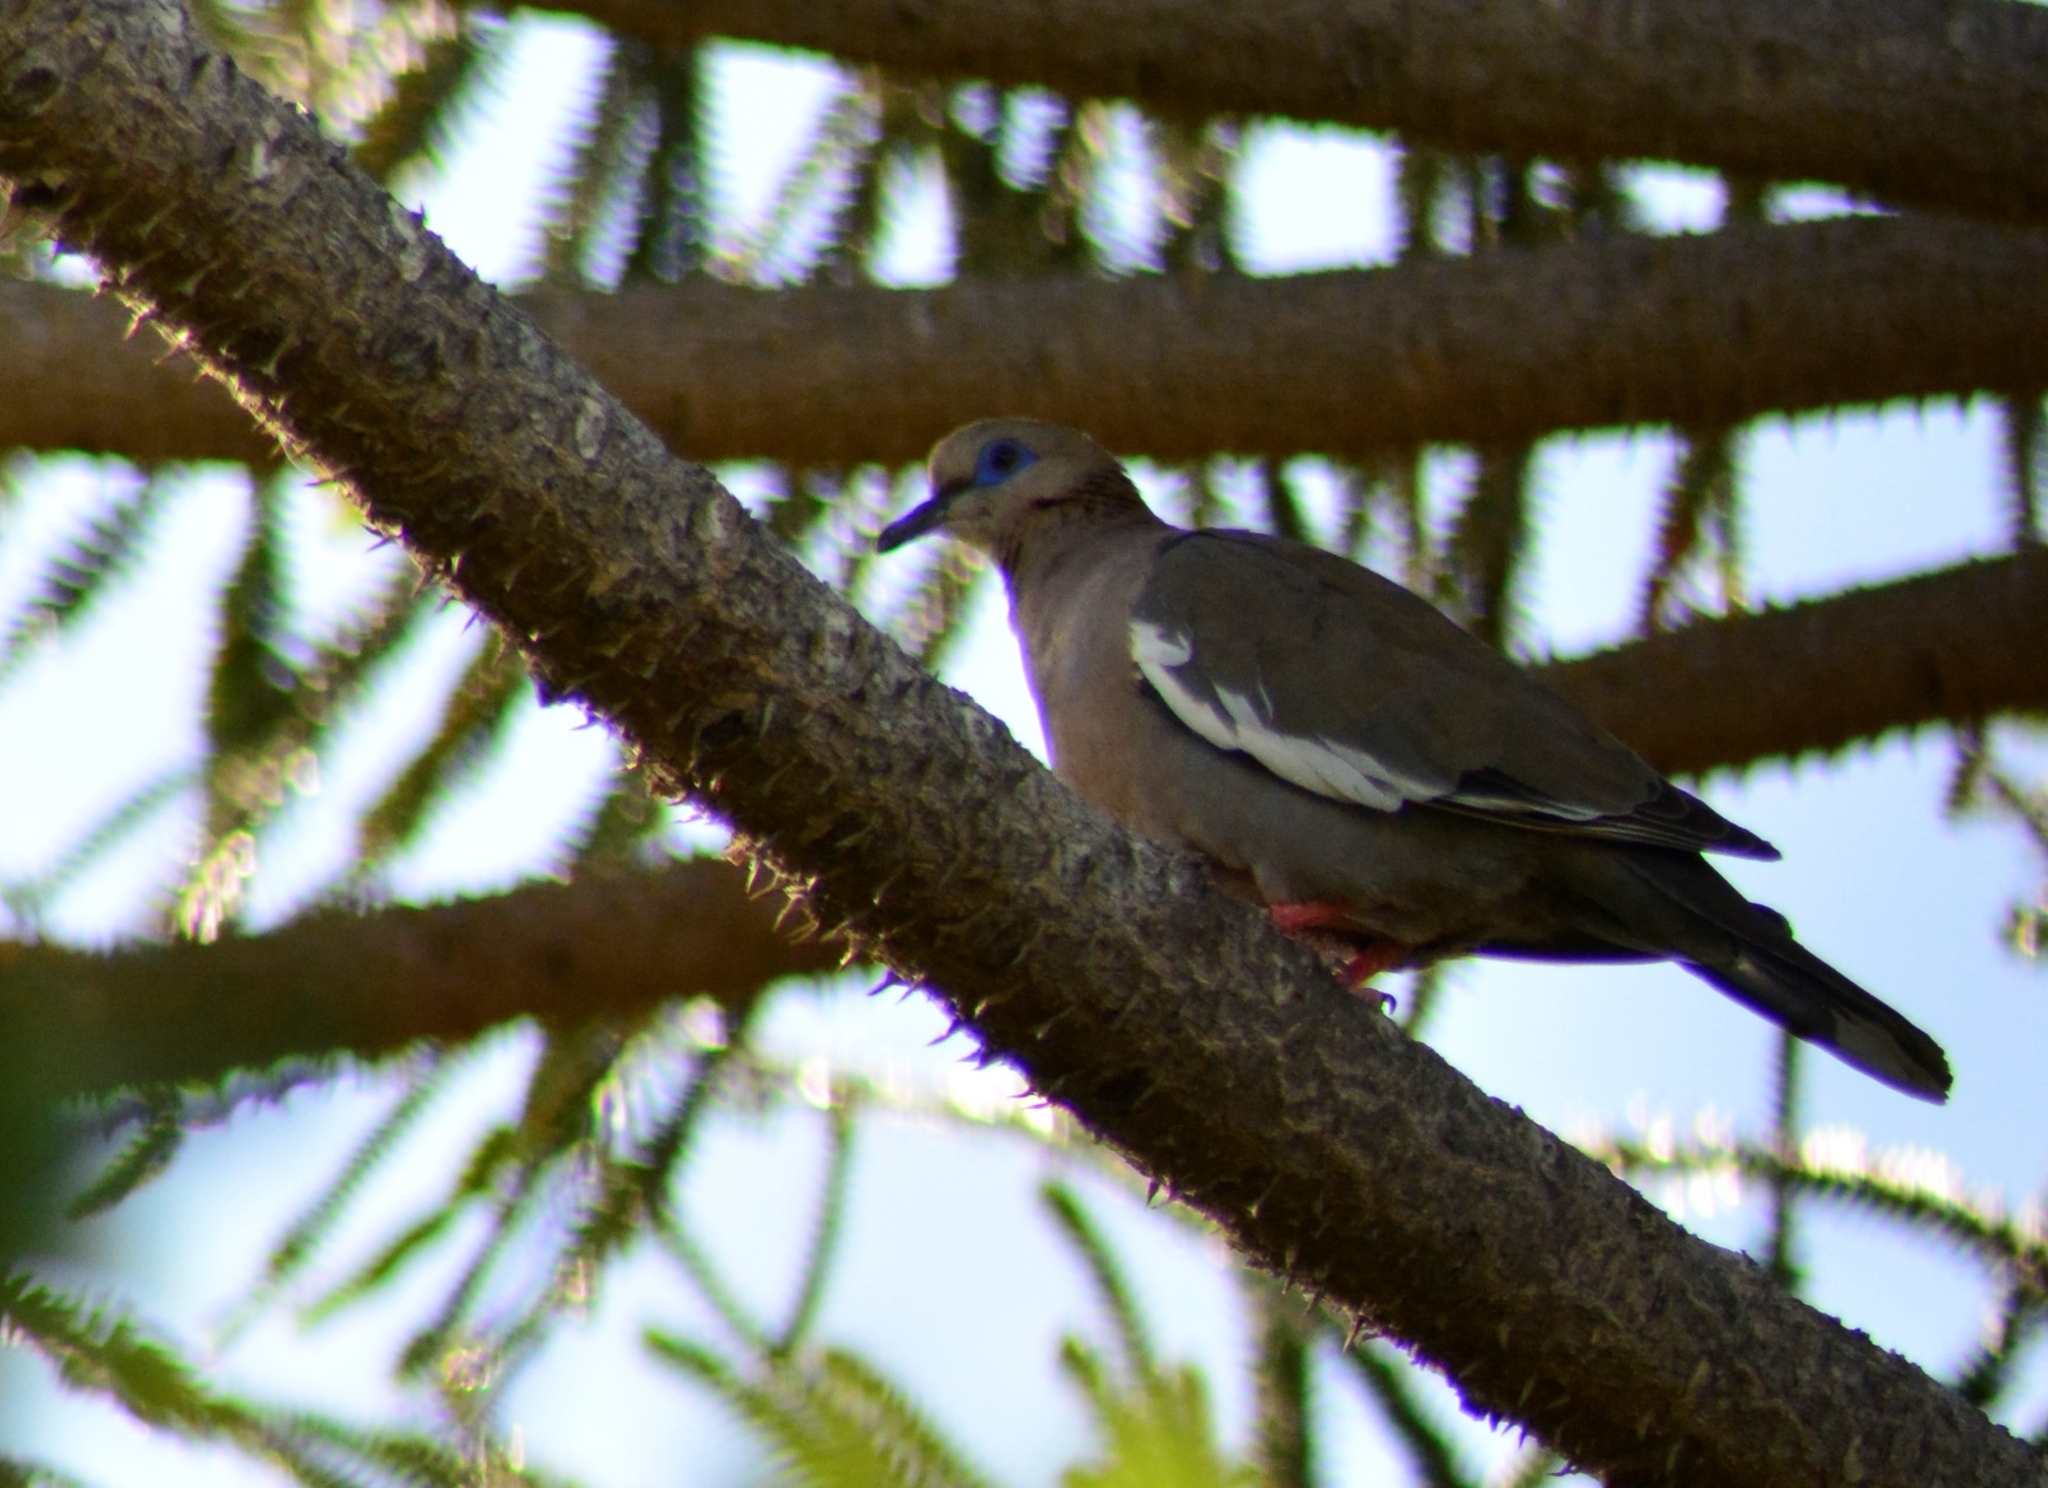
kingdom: Animalia
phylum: Chordata
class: Aves
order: Columbiformes
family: Columbidae
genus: Zenaida
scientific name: Zenaida meloda
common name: West peruvian dove
